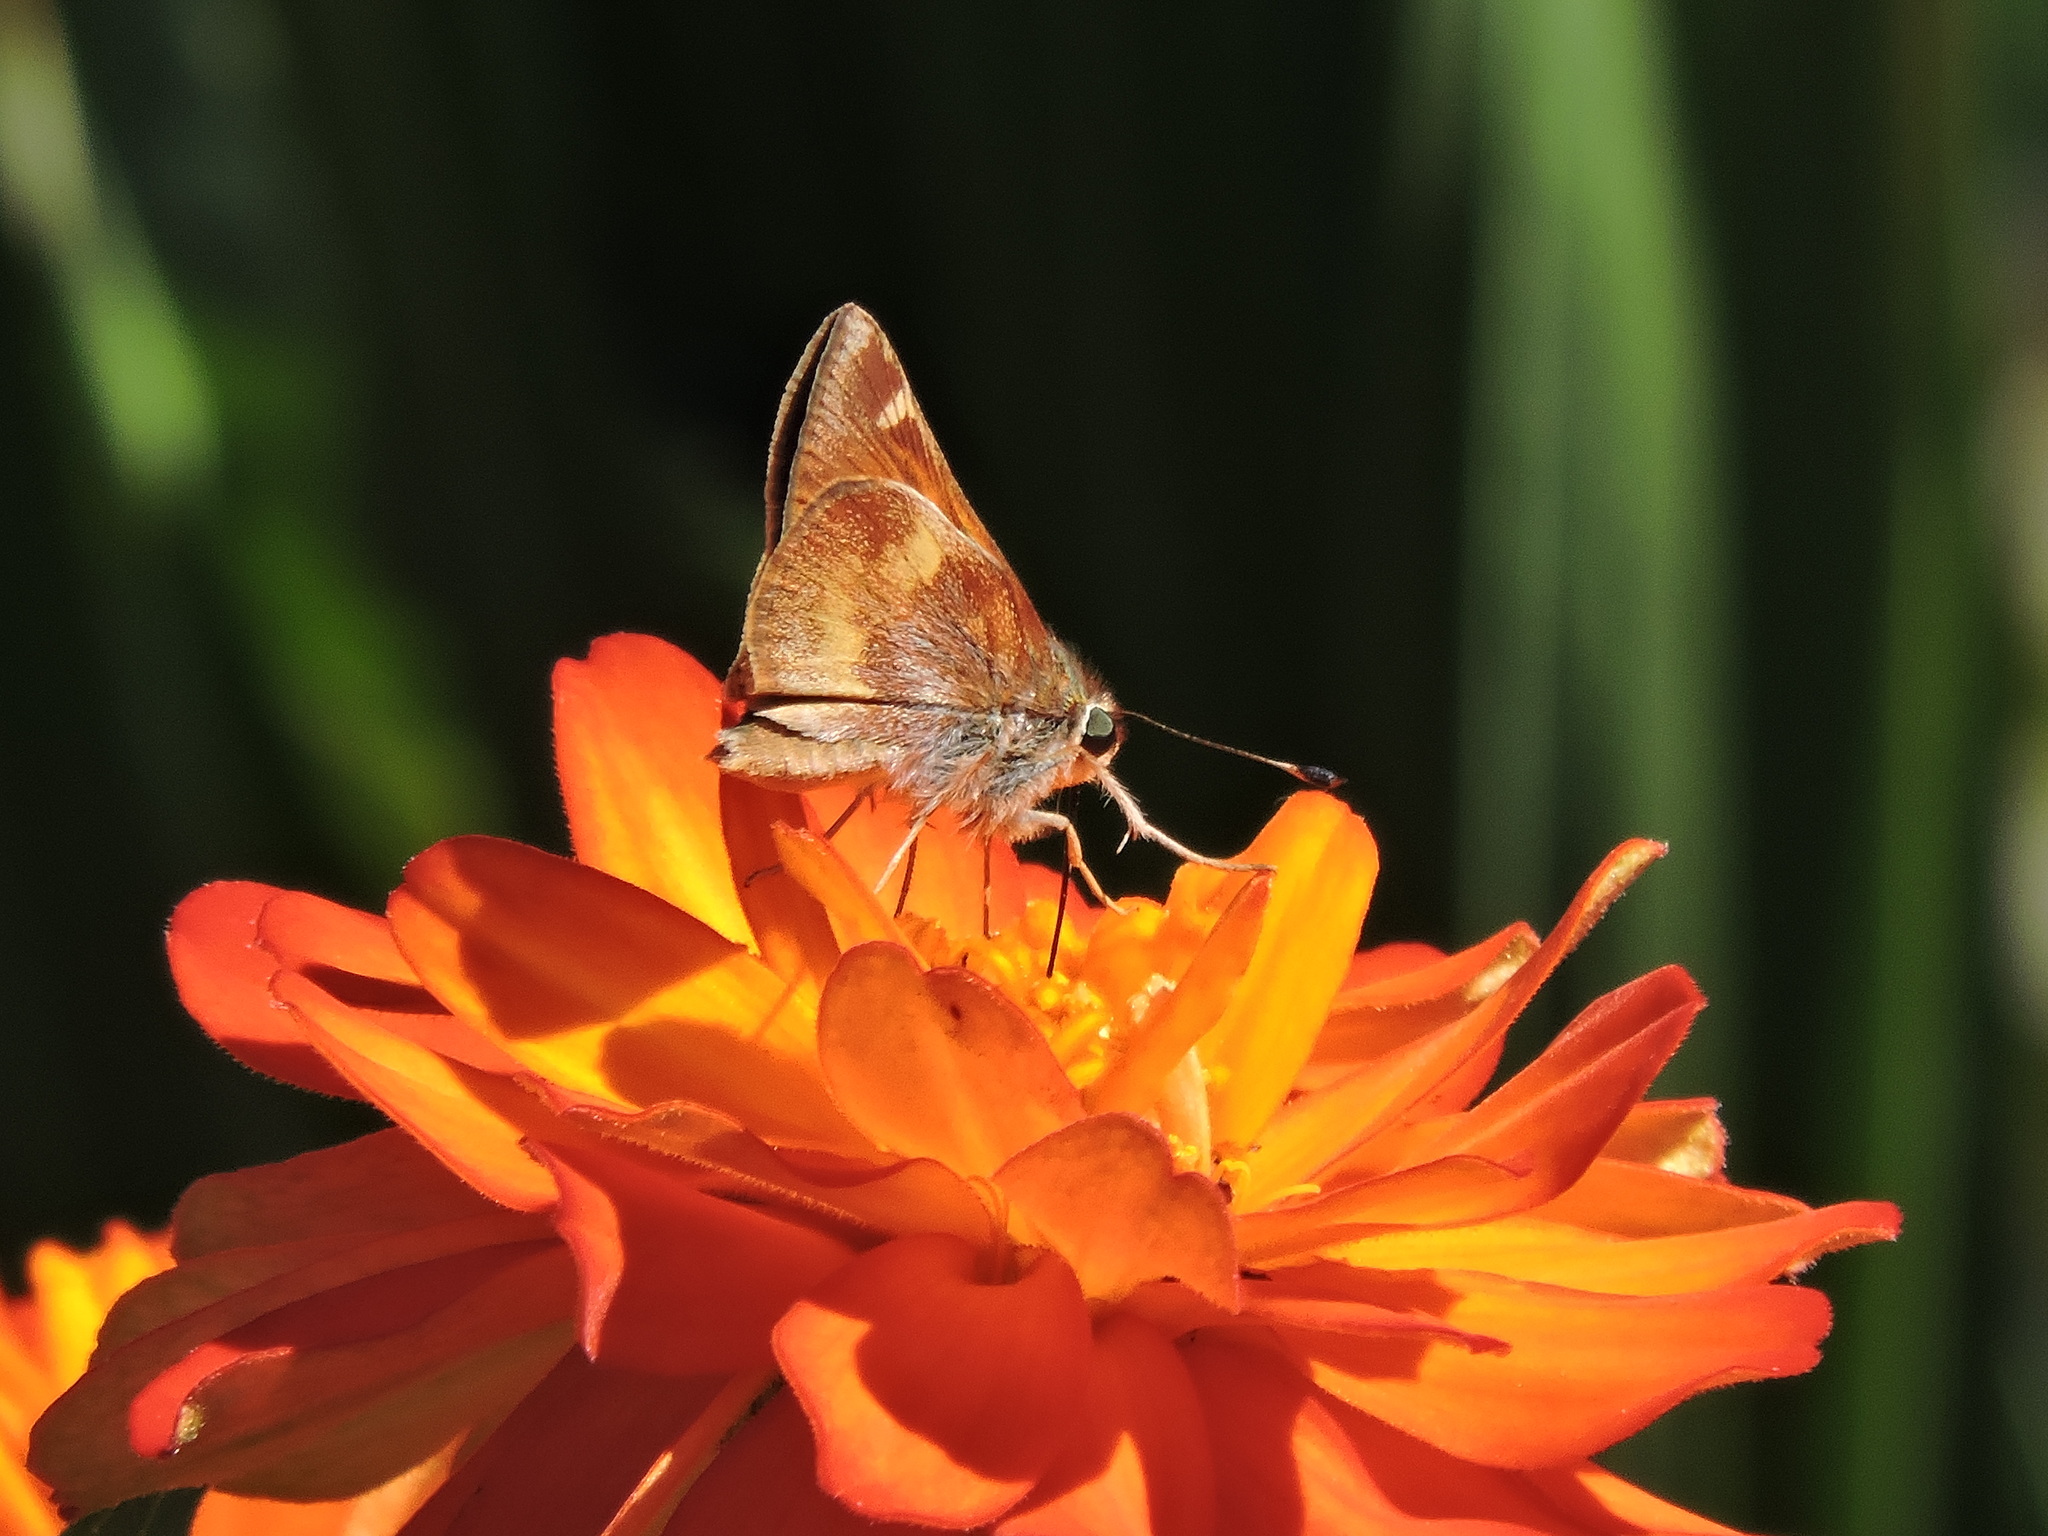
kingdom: Animalia
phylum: Arthropoda
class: Insecta
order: Lepidoptera
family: Hesperiidae
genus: Lon
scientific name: Lon melane
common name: Umber skipper
